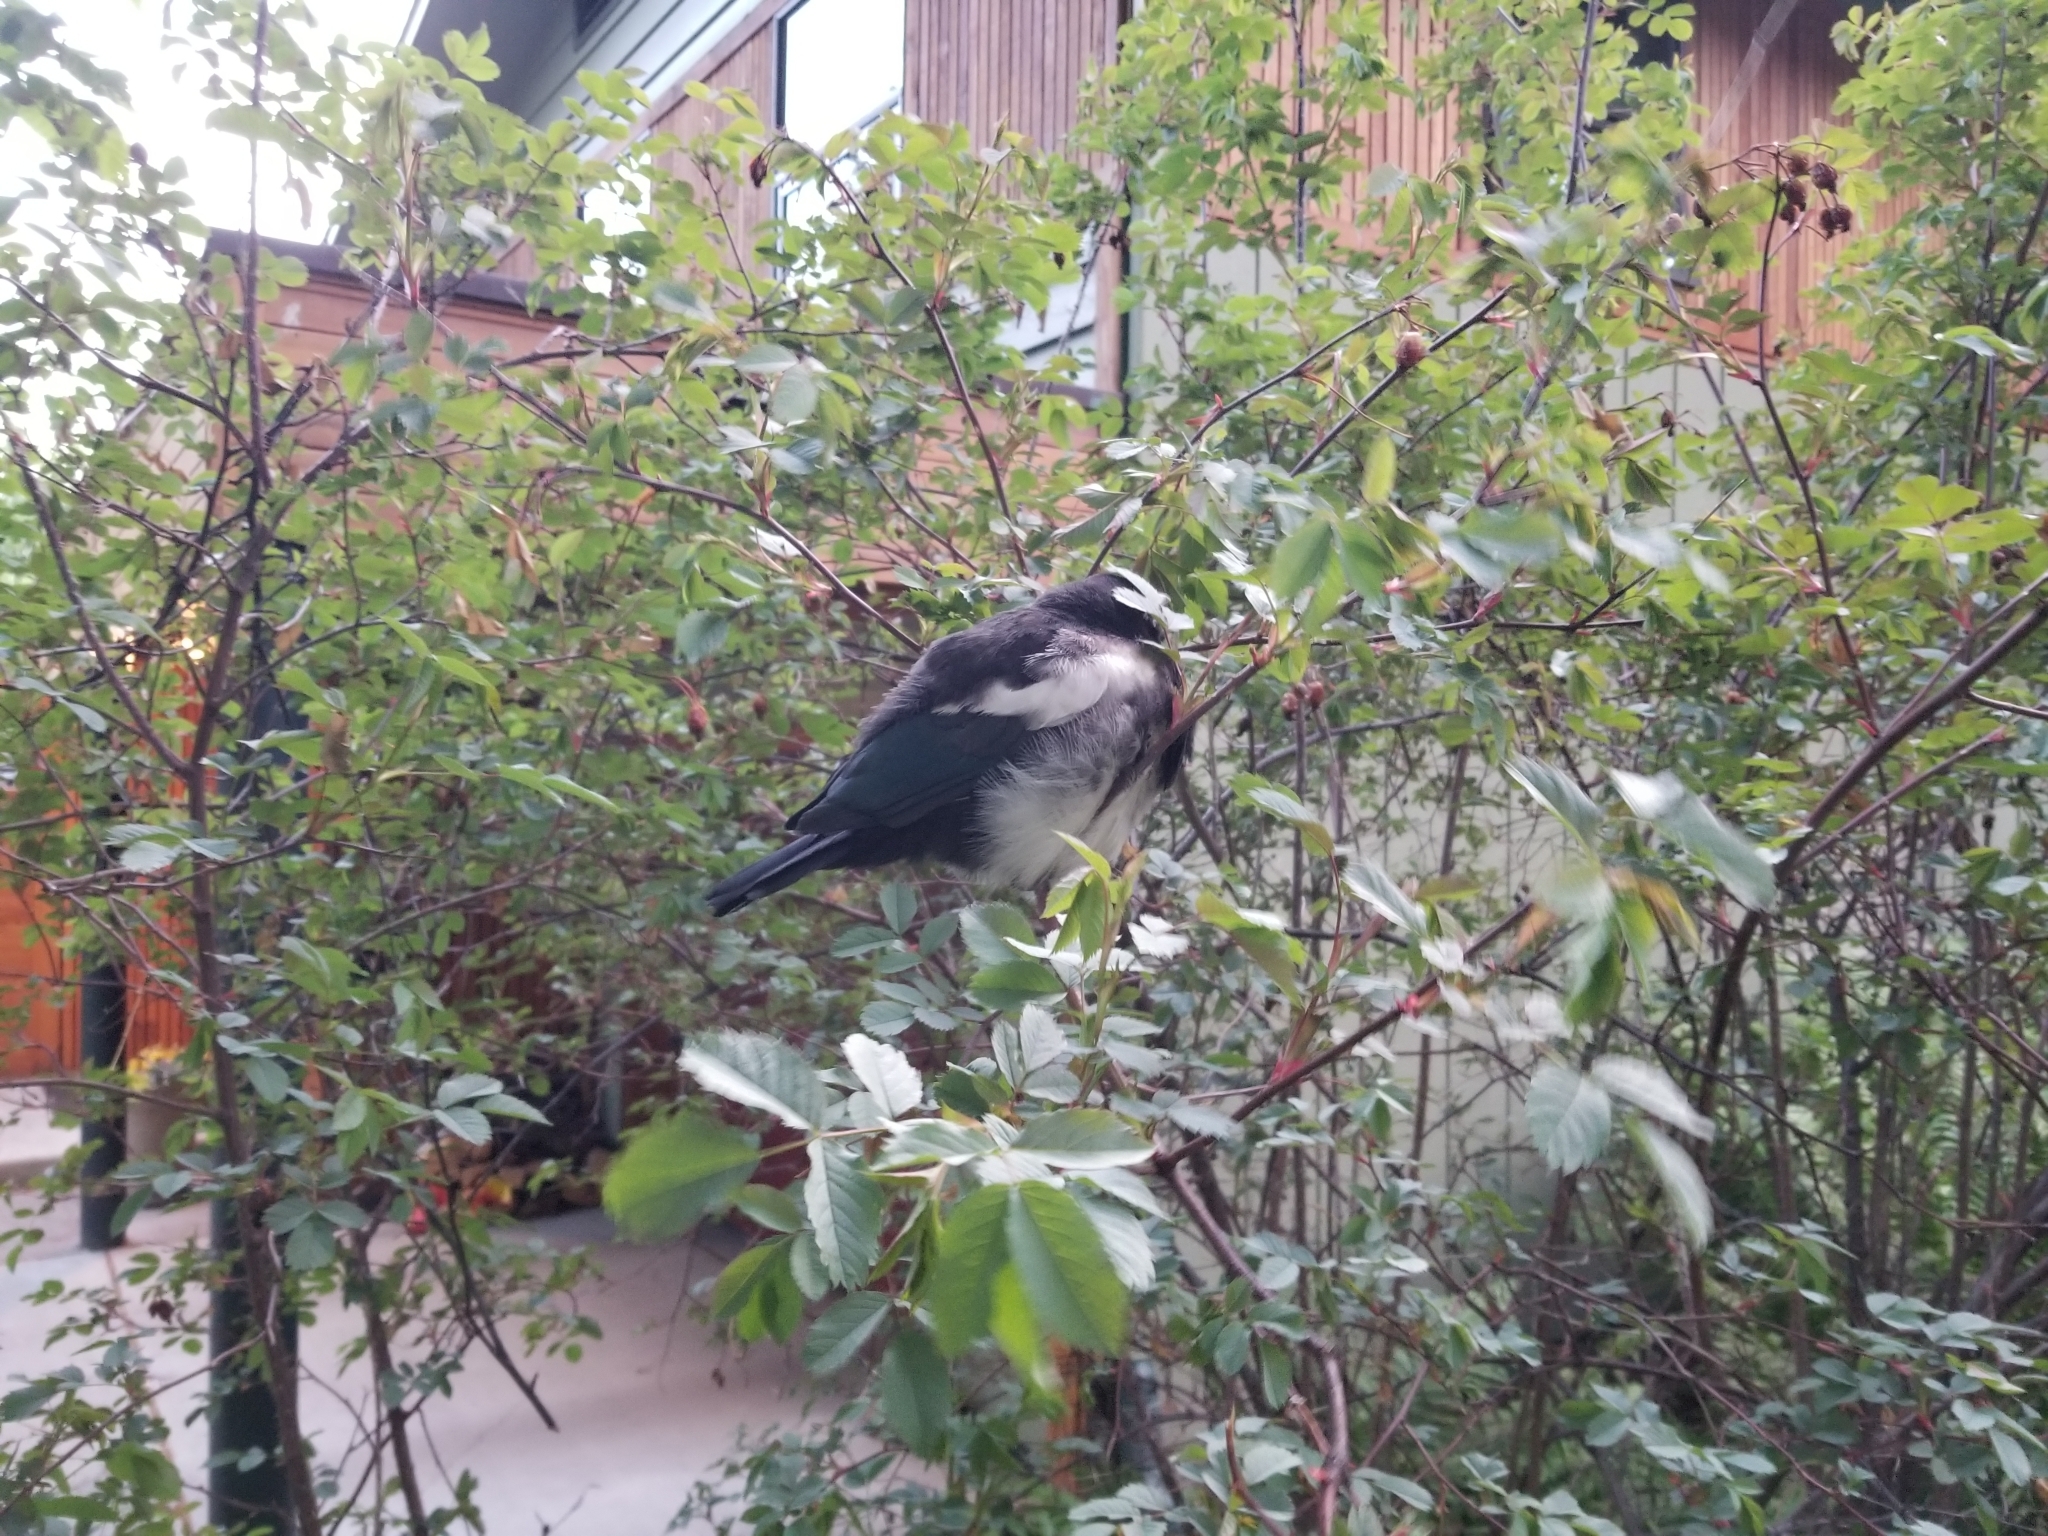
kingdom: Animalia
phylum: Chordata
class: Aves
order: Passeriformes
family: Corvidae
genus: Pica
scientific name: Pica hudsonia
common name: Black-billed magpie
